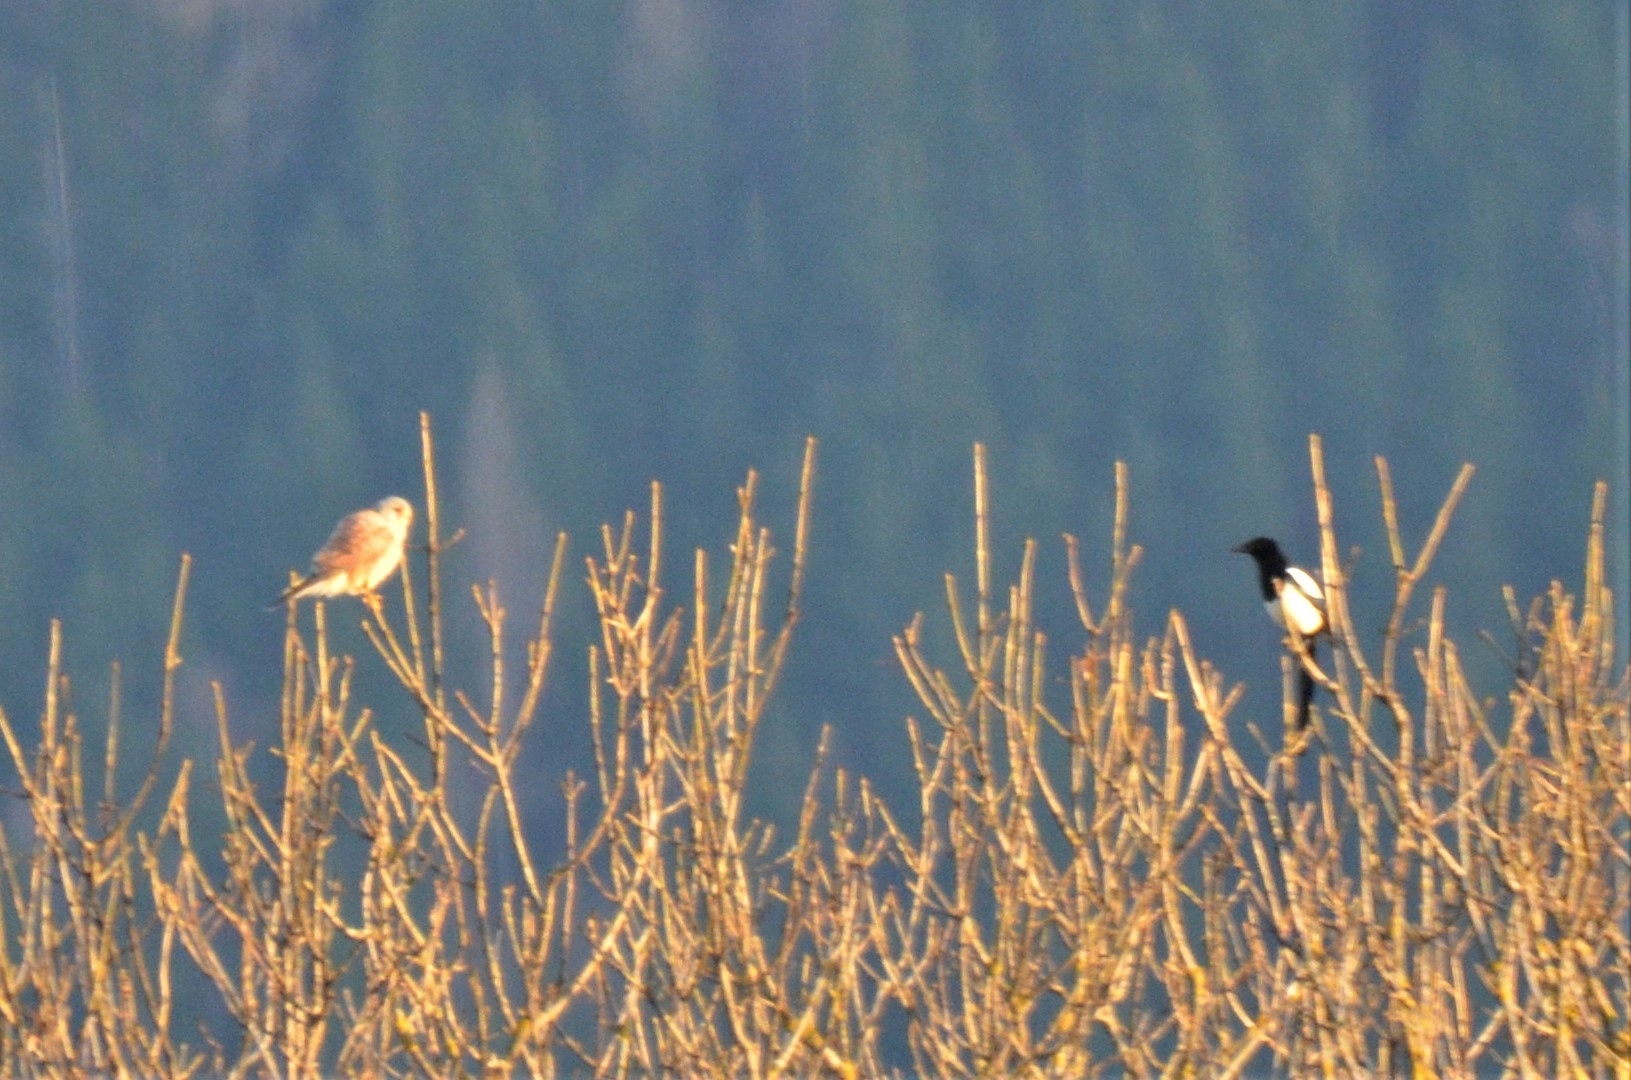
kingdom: Animalia
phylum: Chordata
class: Aves
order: Falconiformes
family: Falconidae
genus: Falco
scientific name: Falco tinnunculus
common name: Common kestrel
